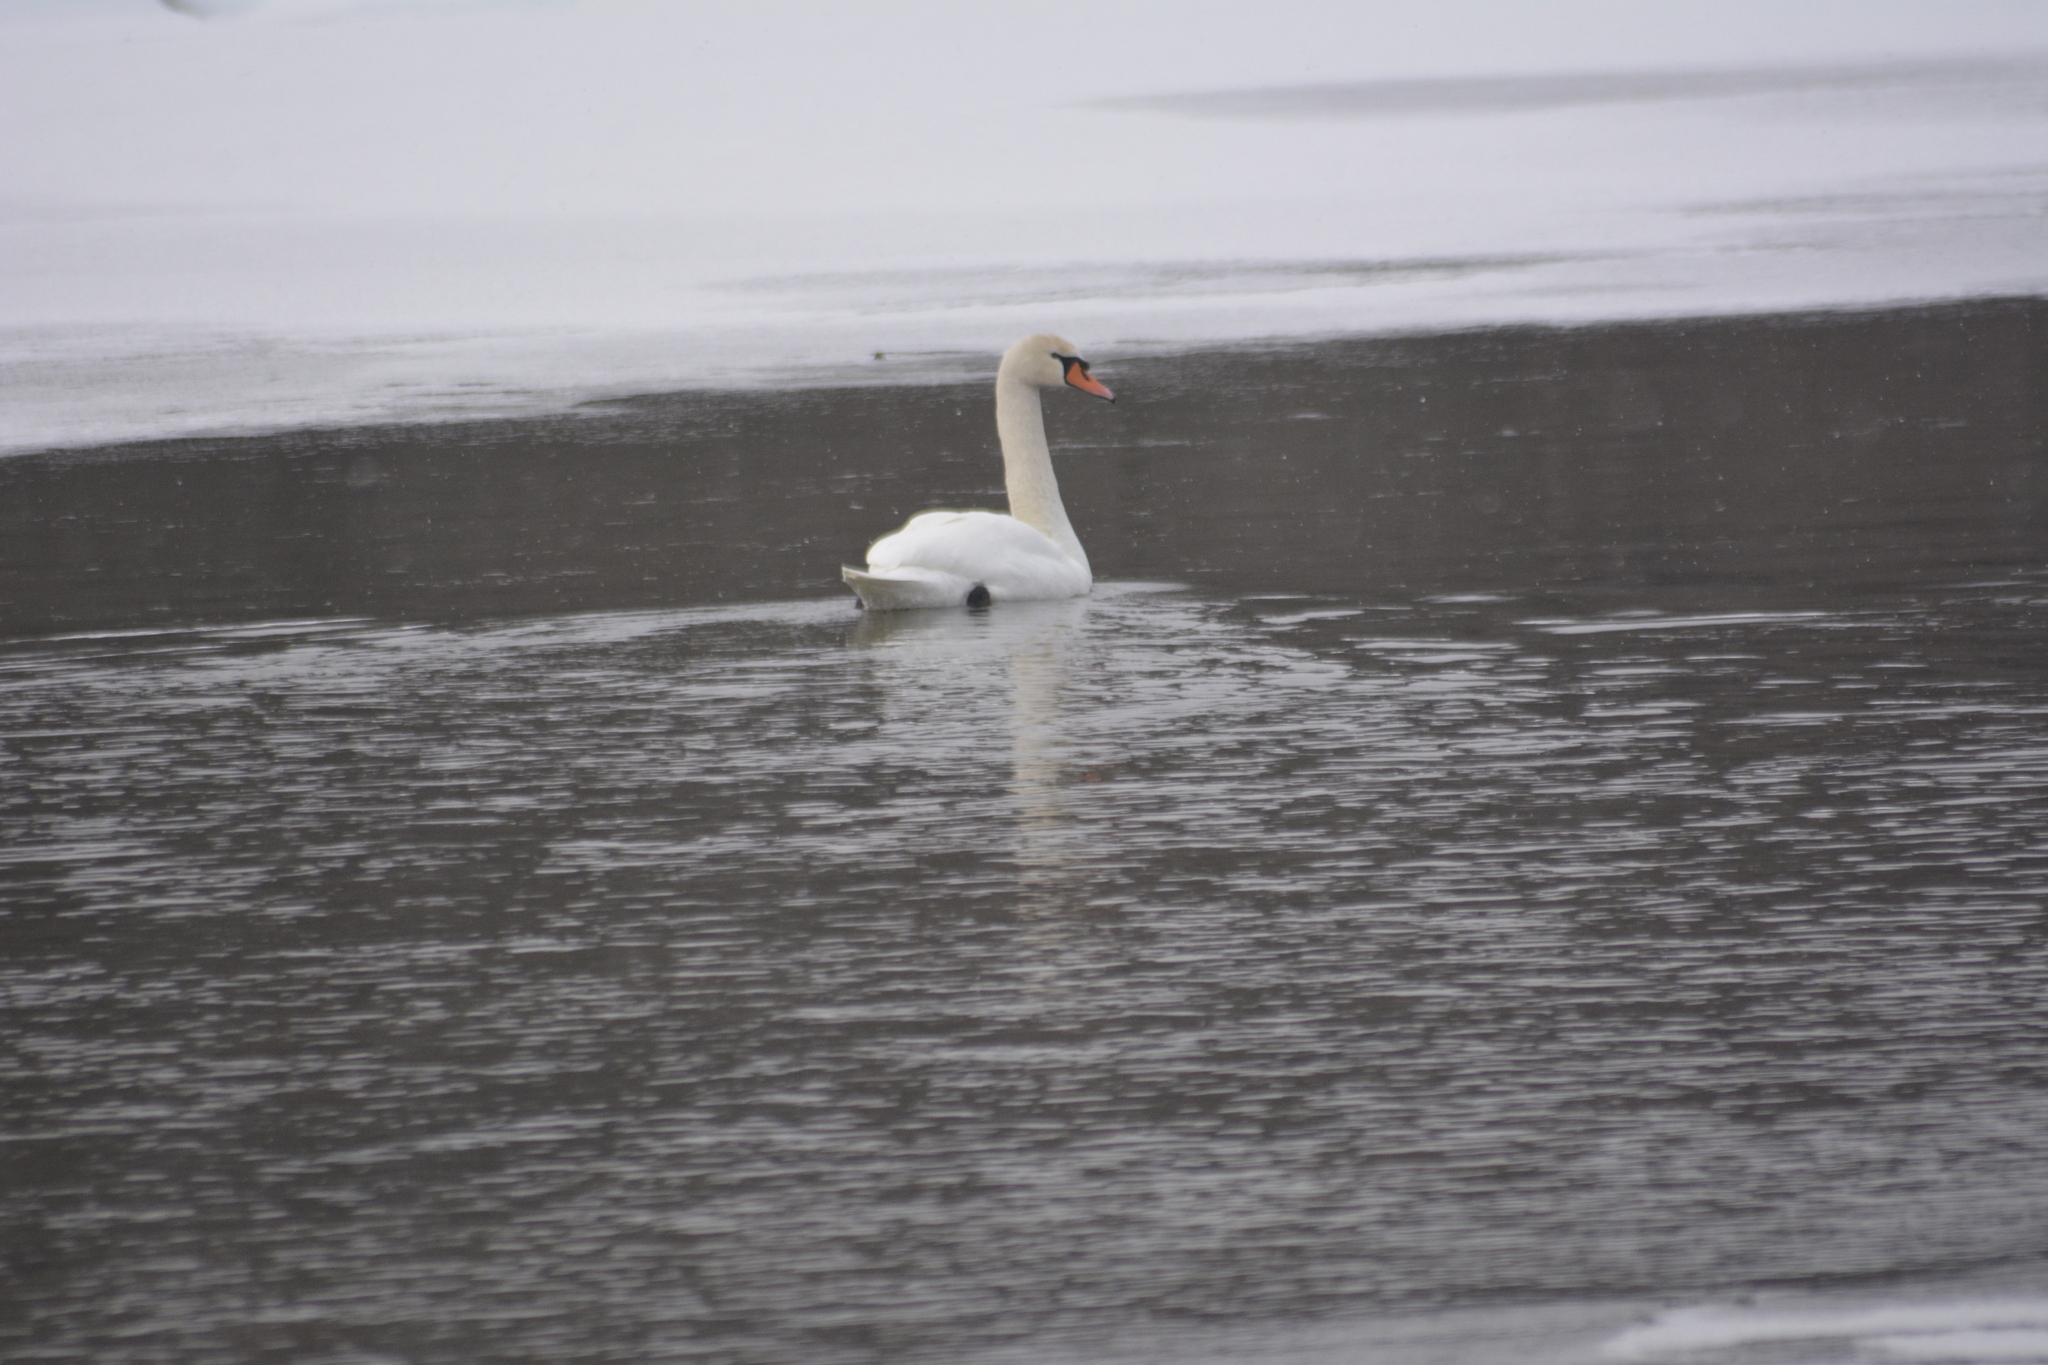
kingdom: Animalia
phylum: Chordata
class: Aves
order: Anseriformes
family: Anatidae
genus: Cygnus
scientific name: Cygnus olor
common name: Mute swan
